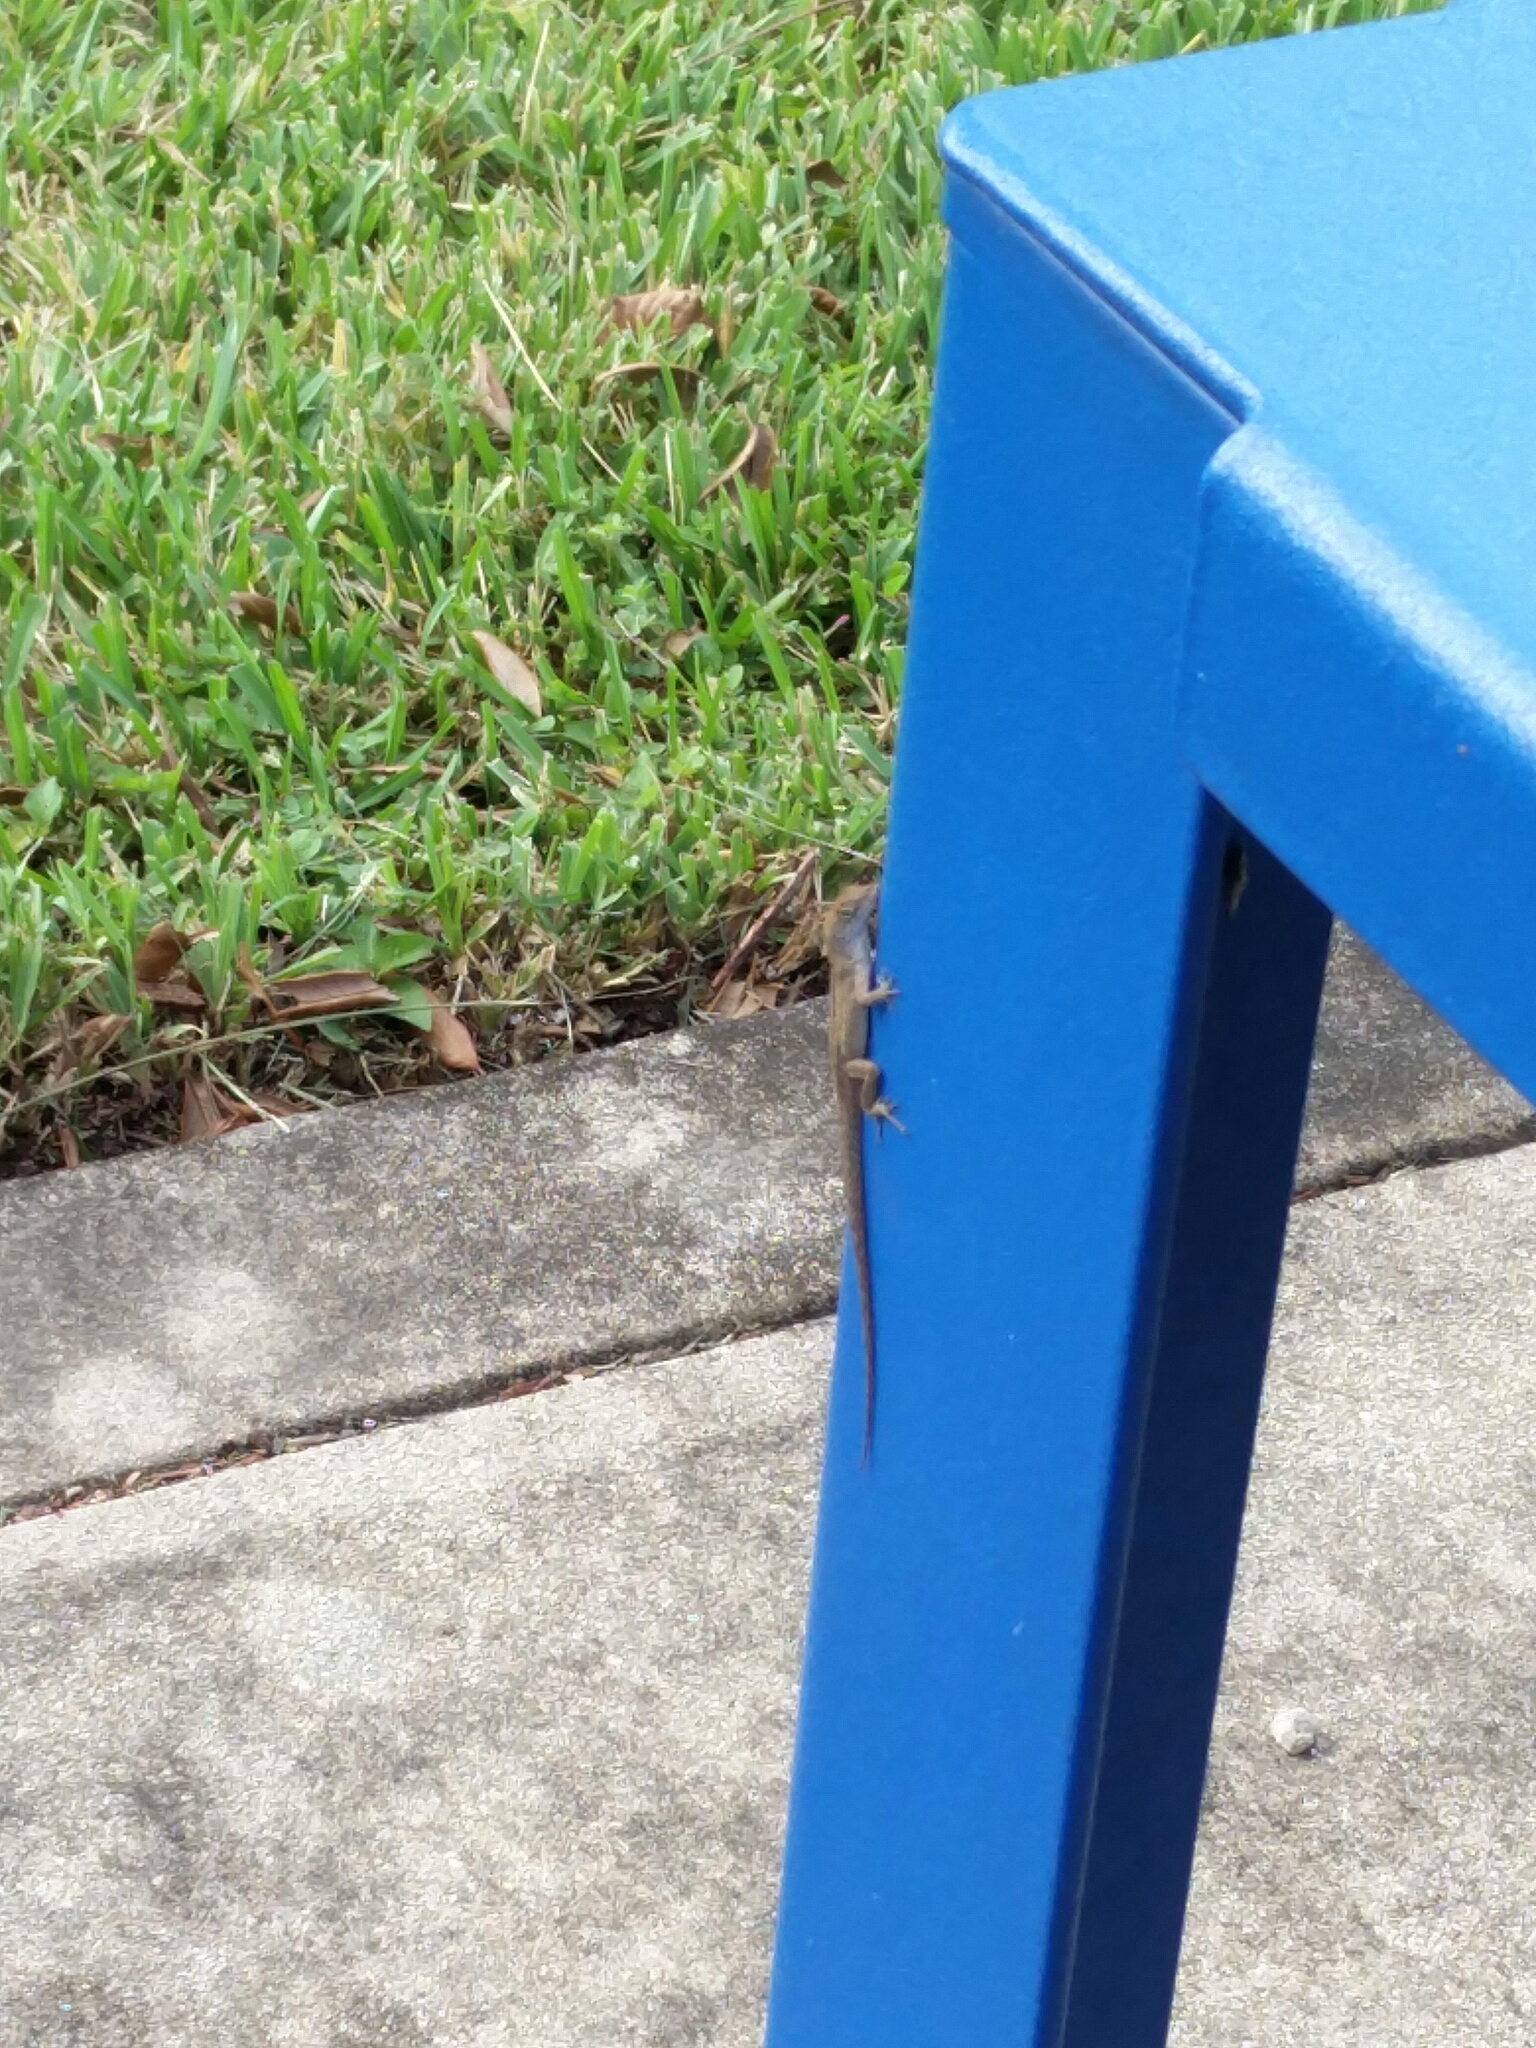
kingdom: Animalia
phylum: Chordata
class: Squamata
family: Dactyloidae
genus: Anolis
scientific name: Anolis sagrei
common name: Brown anole
